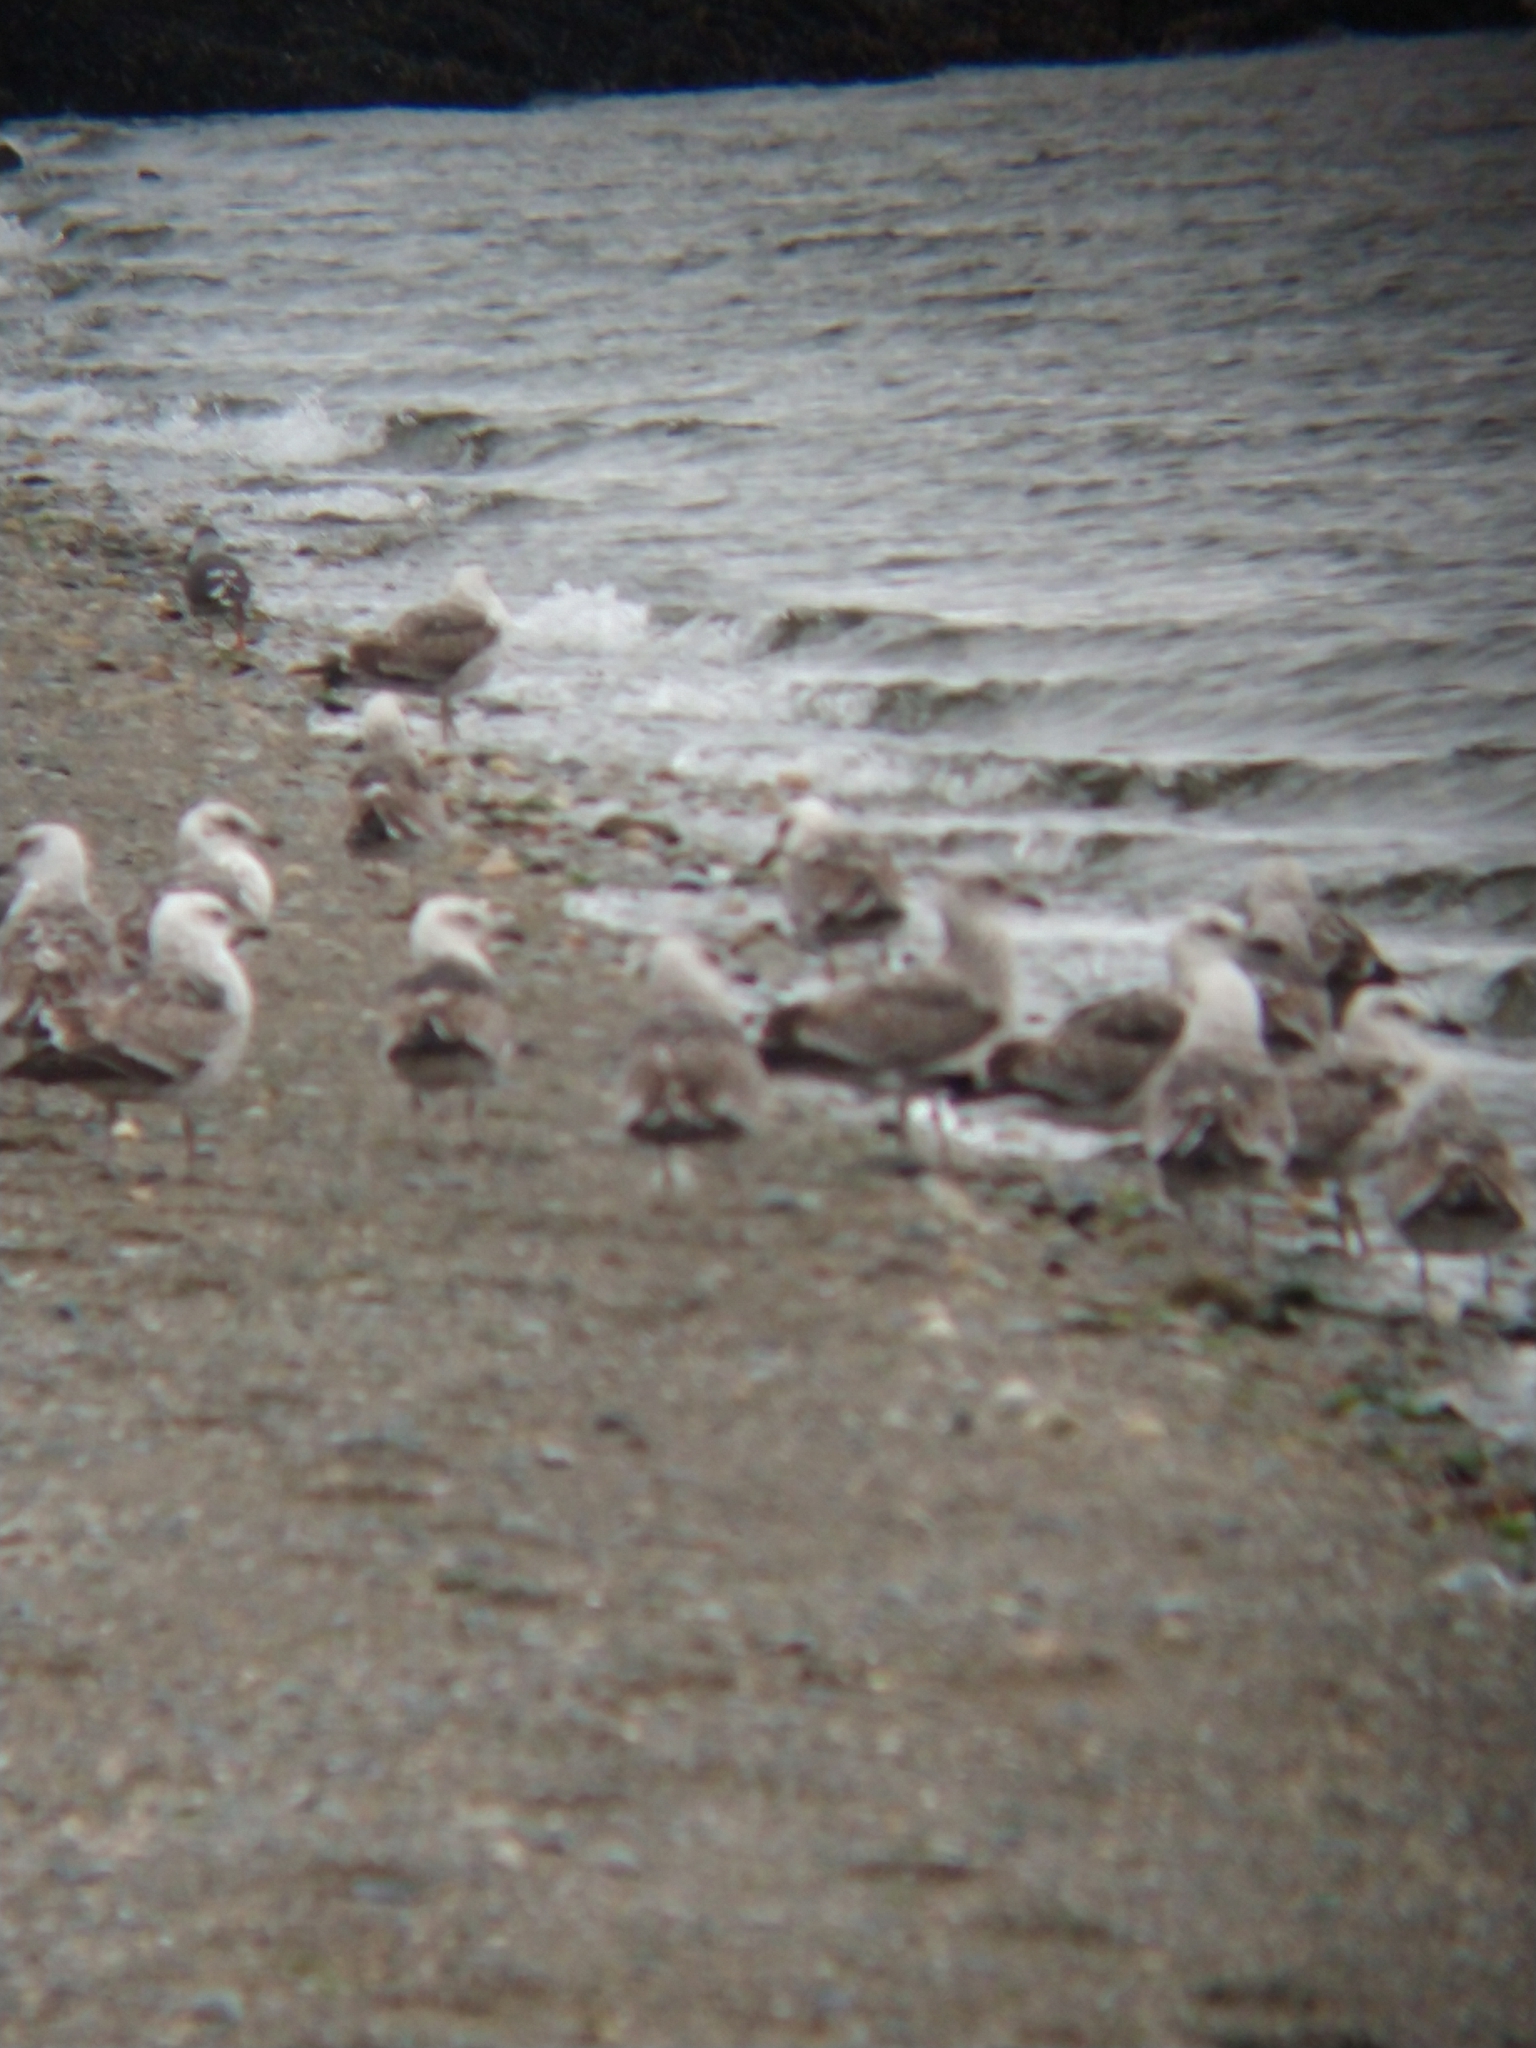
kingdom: Animalia
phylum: Chordata
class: Aves
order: Charadriiformes
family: Laridae
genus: Larus
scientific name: Larus dominicanus
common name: Kelp gull
